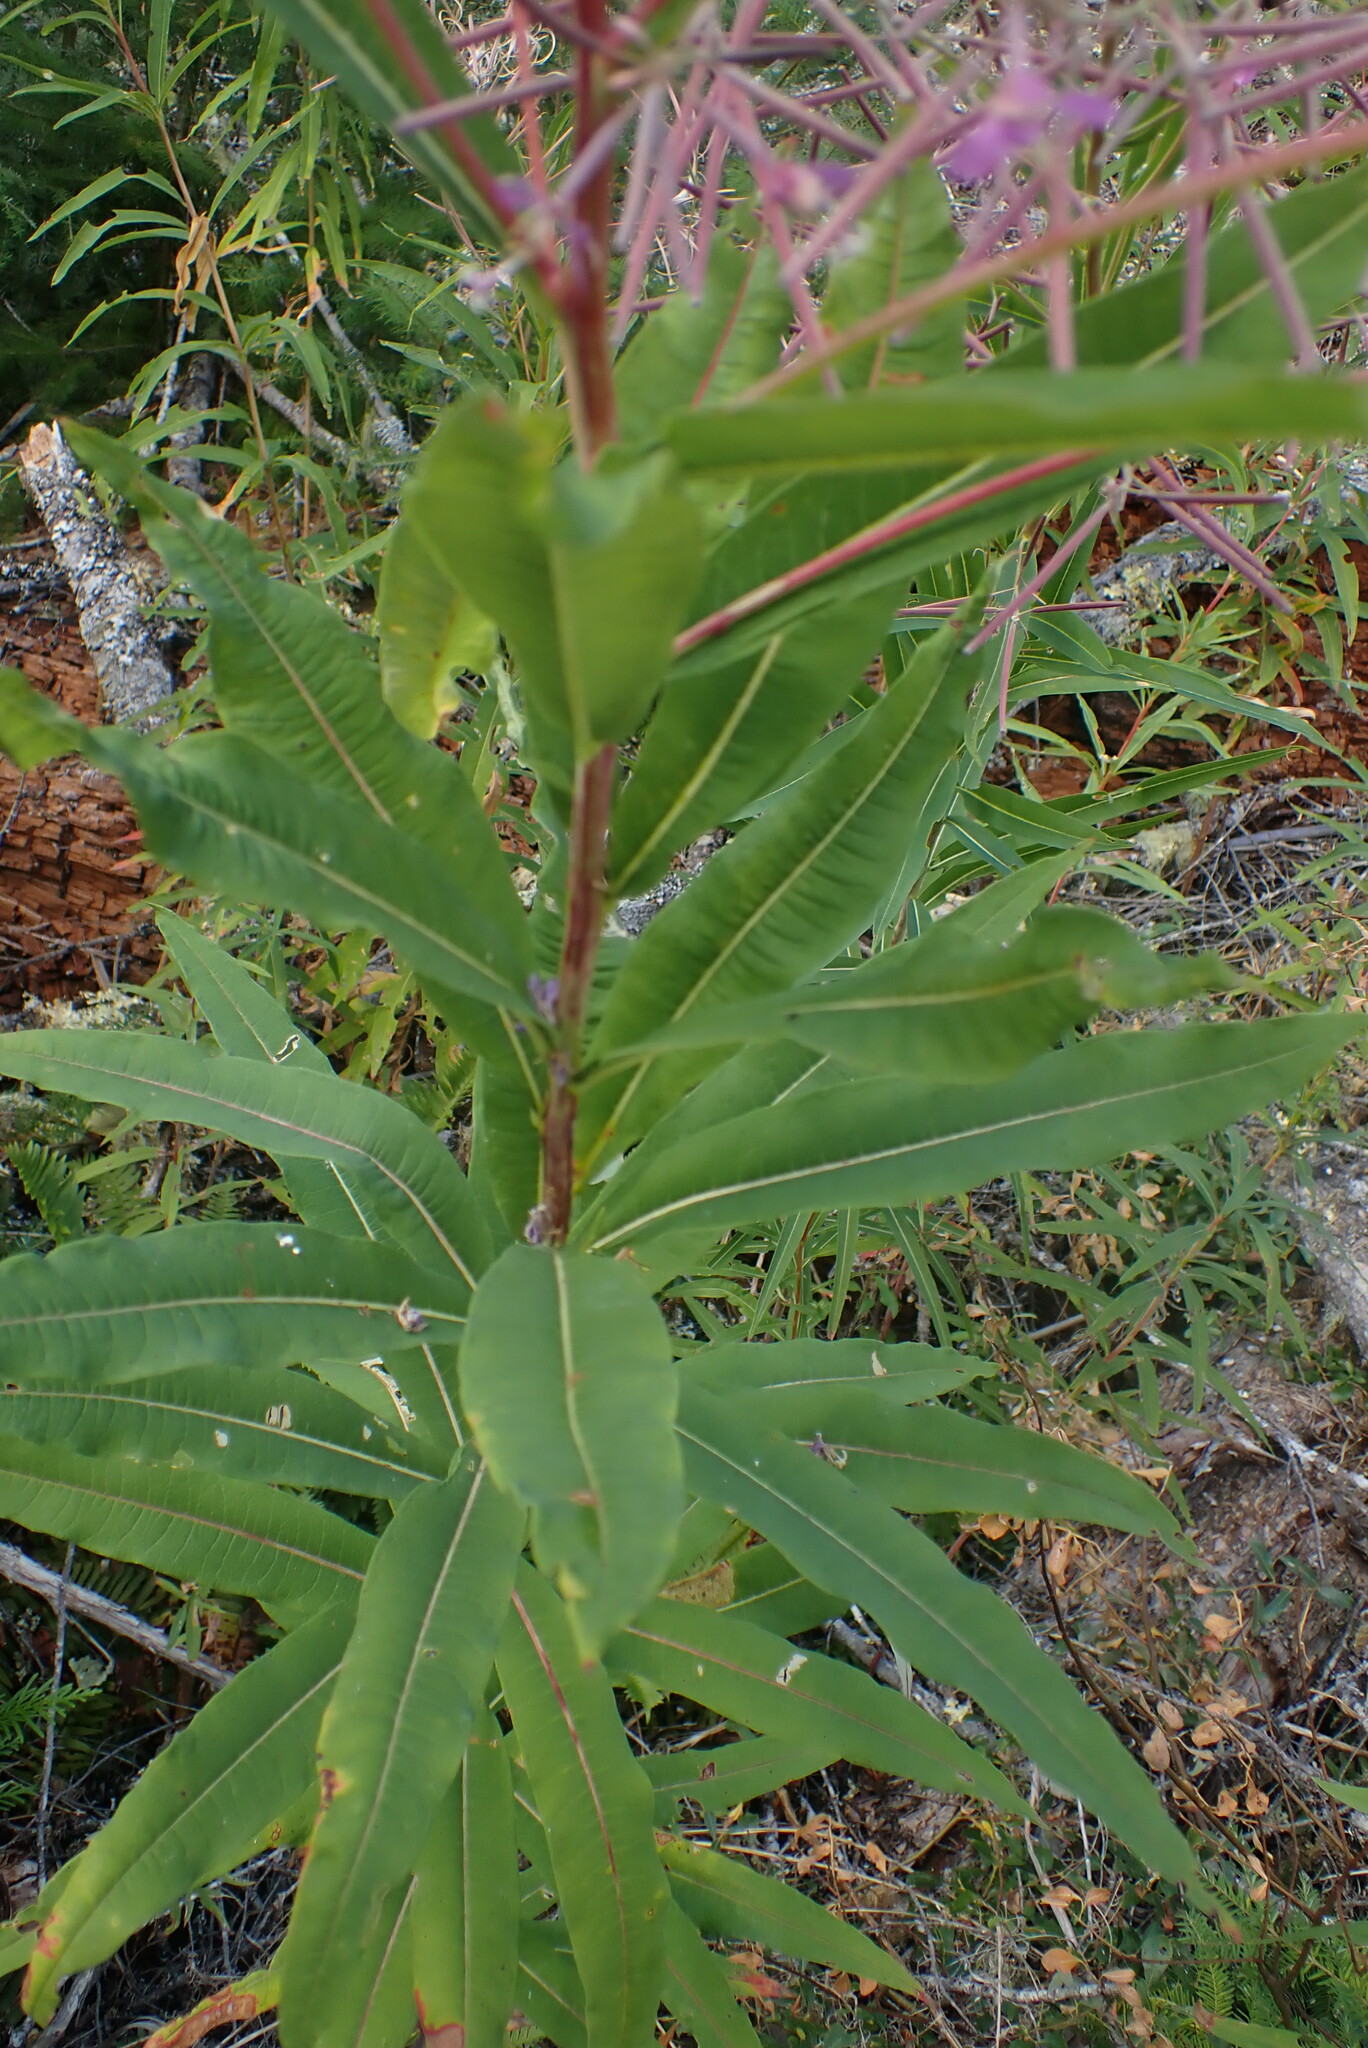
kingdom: Plantae
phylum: Tracheophyta
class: Magnoliopsida
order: Myrtales
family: Onagraceae
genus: Chamaenerion
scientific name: Chamaenerion angustifolium
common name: Fireweed
